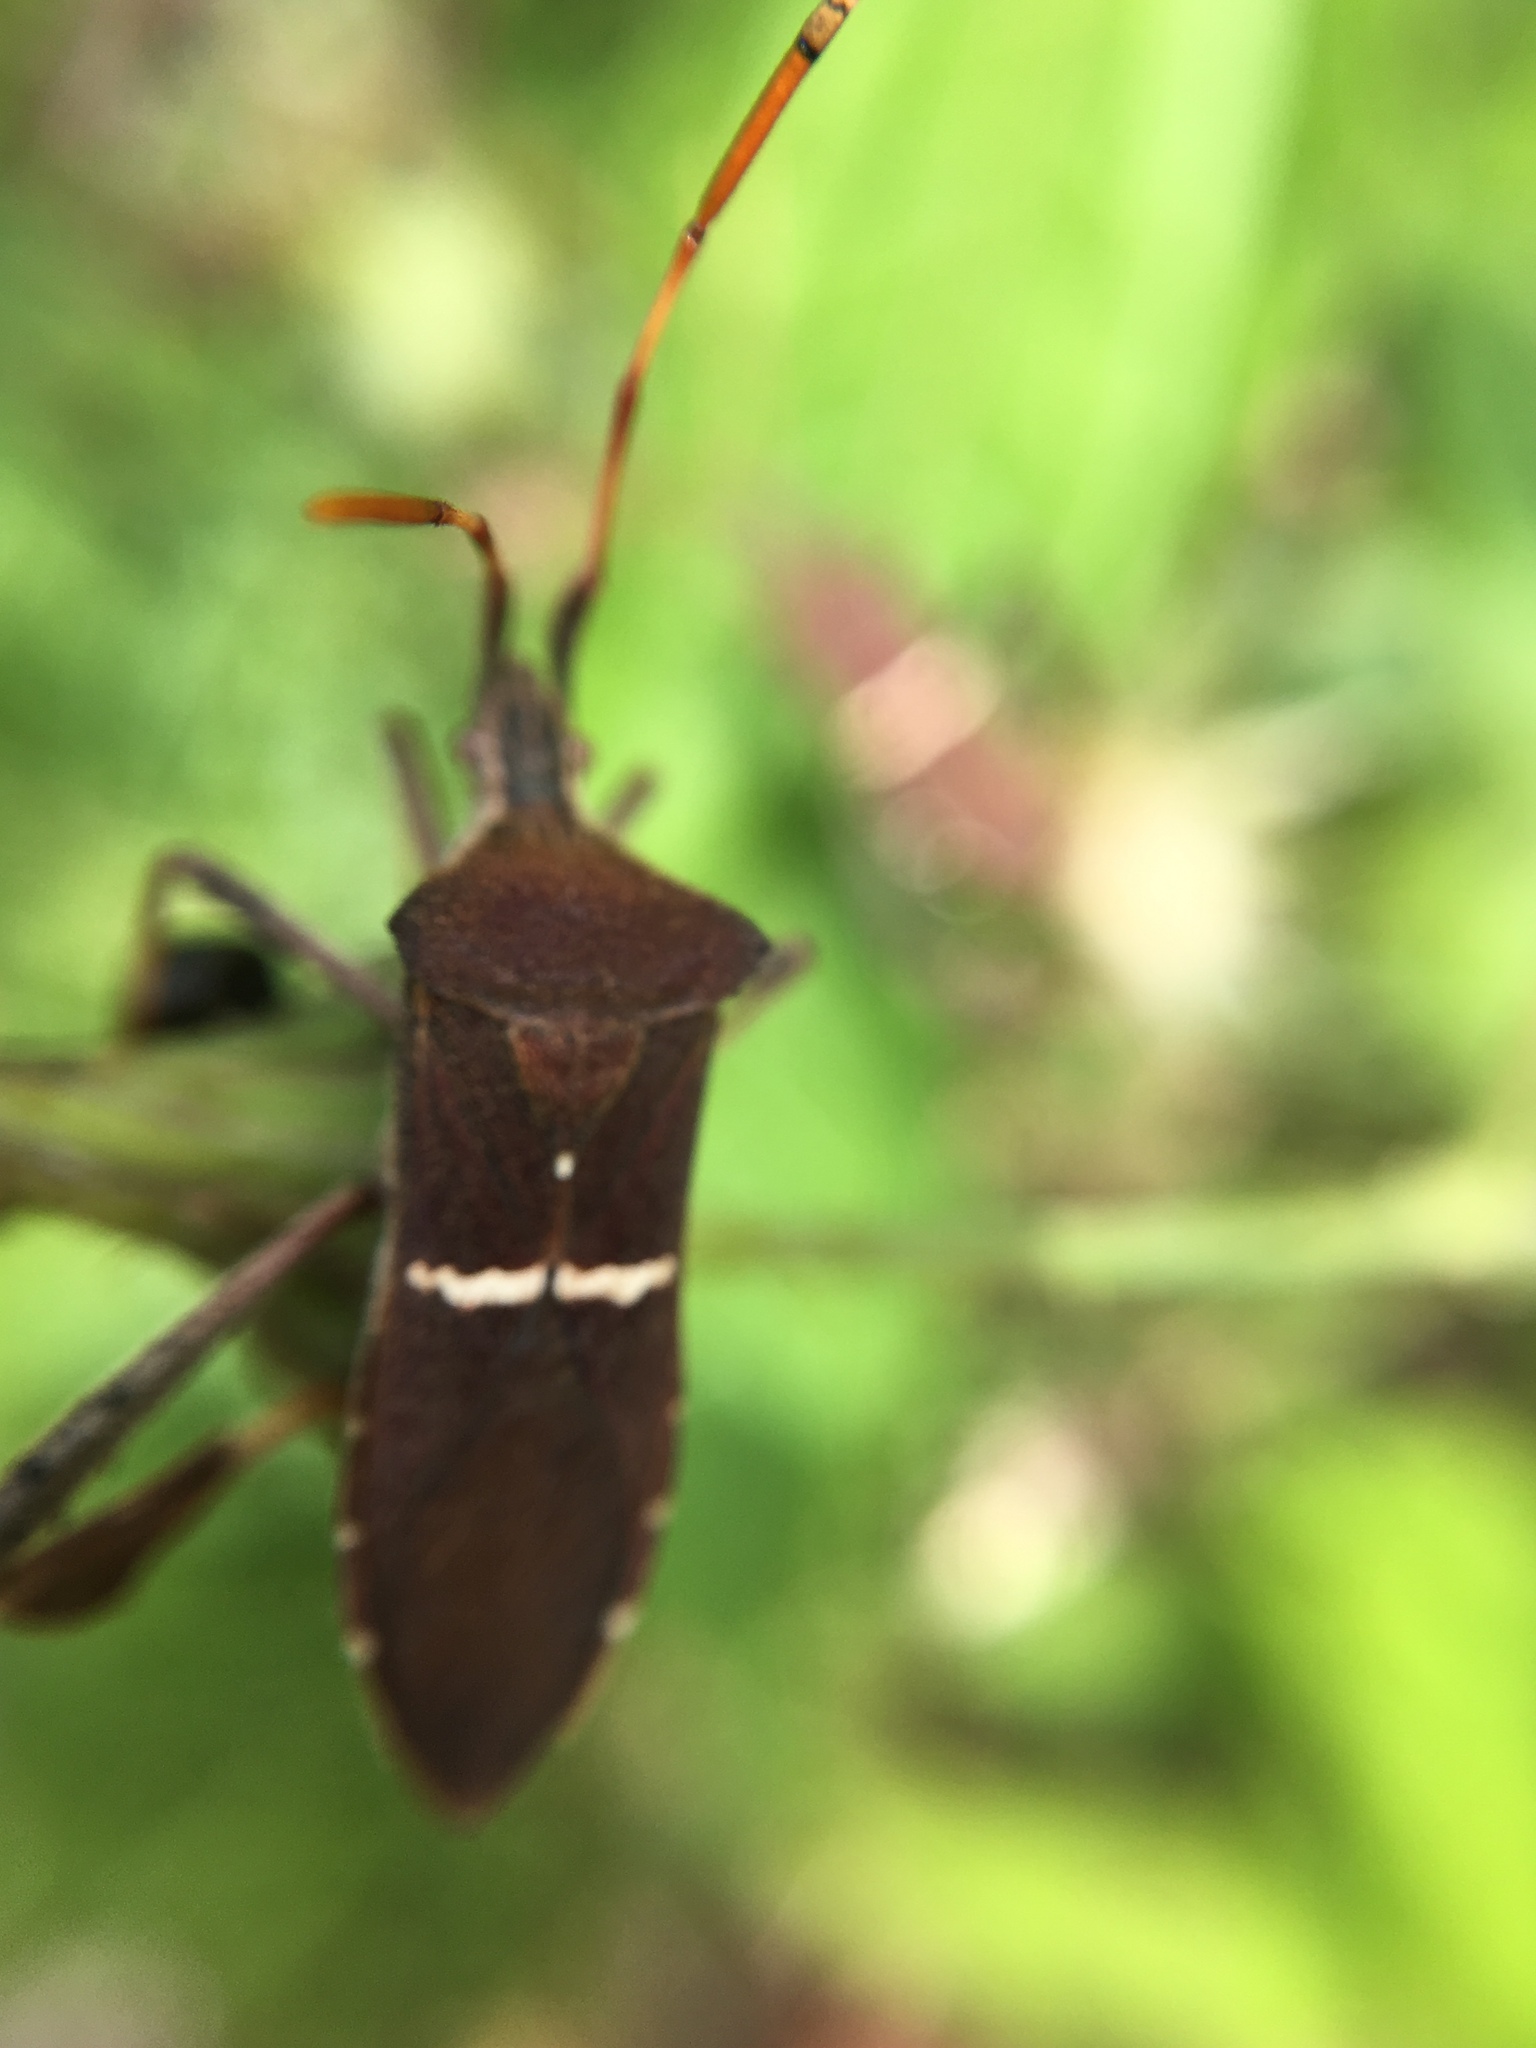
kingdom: Animalia
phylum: Arthropoda
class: Insecta
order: Hemiptera
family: Coreidae
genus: Leptoglossus
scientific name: Leptoglossus phyllopus
